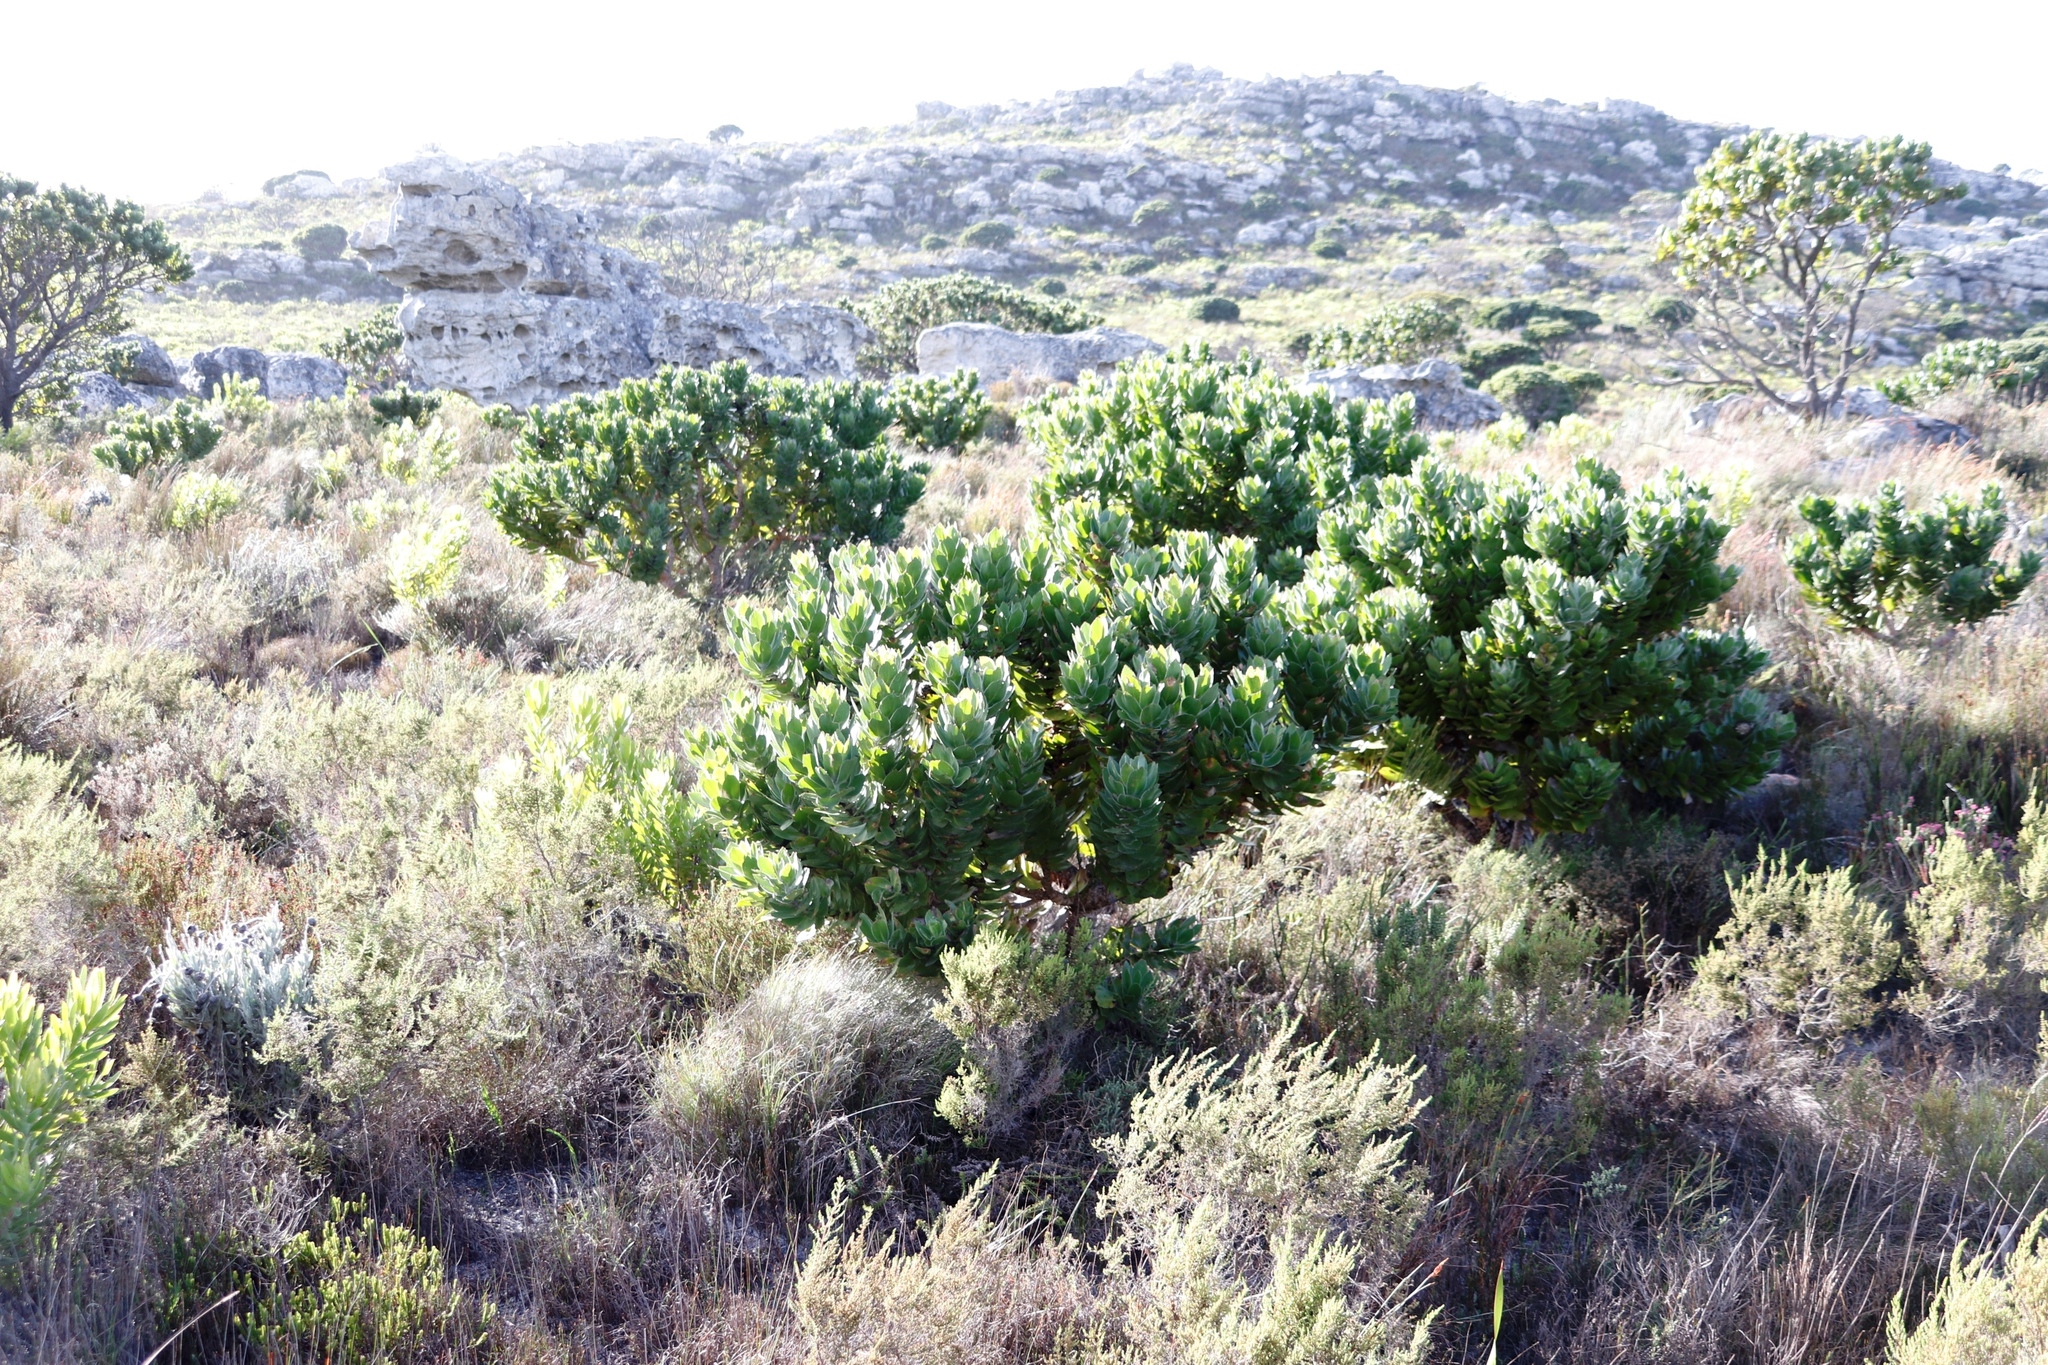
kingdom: Plantae
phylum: Tracheophyta
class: Magnoliopsida
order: Proteales
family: Proteaceae
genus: Leucospermum
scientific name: Leucospermum conocarpodendron
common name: Tree pincushion
